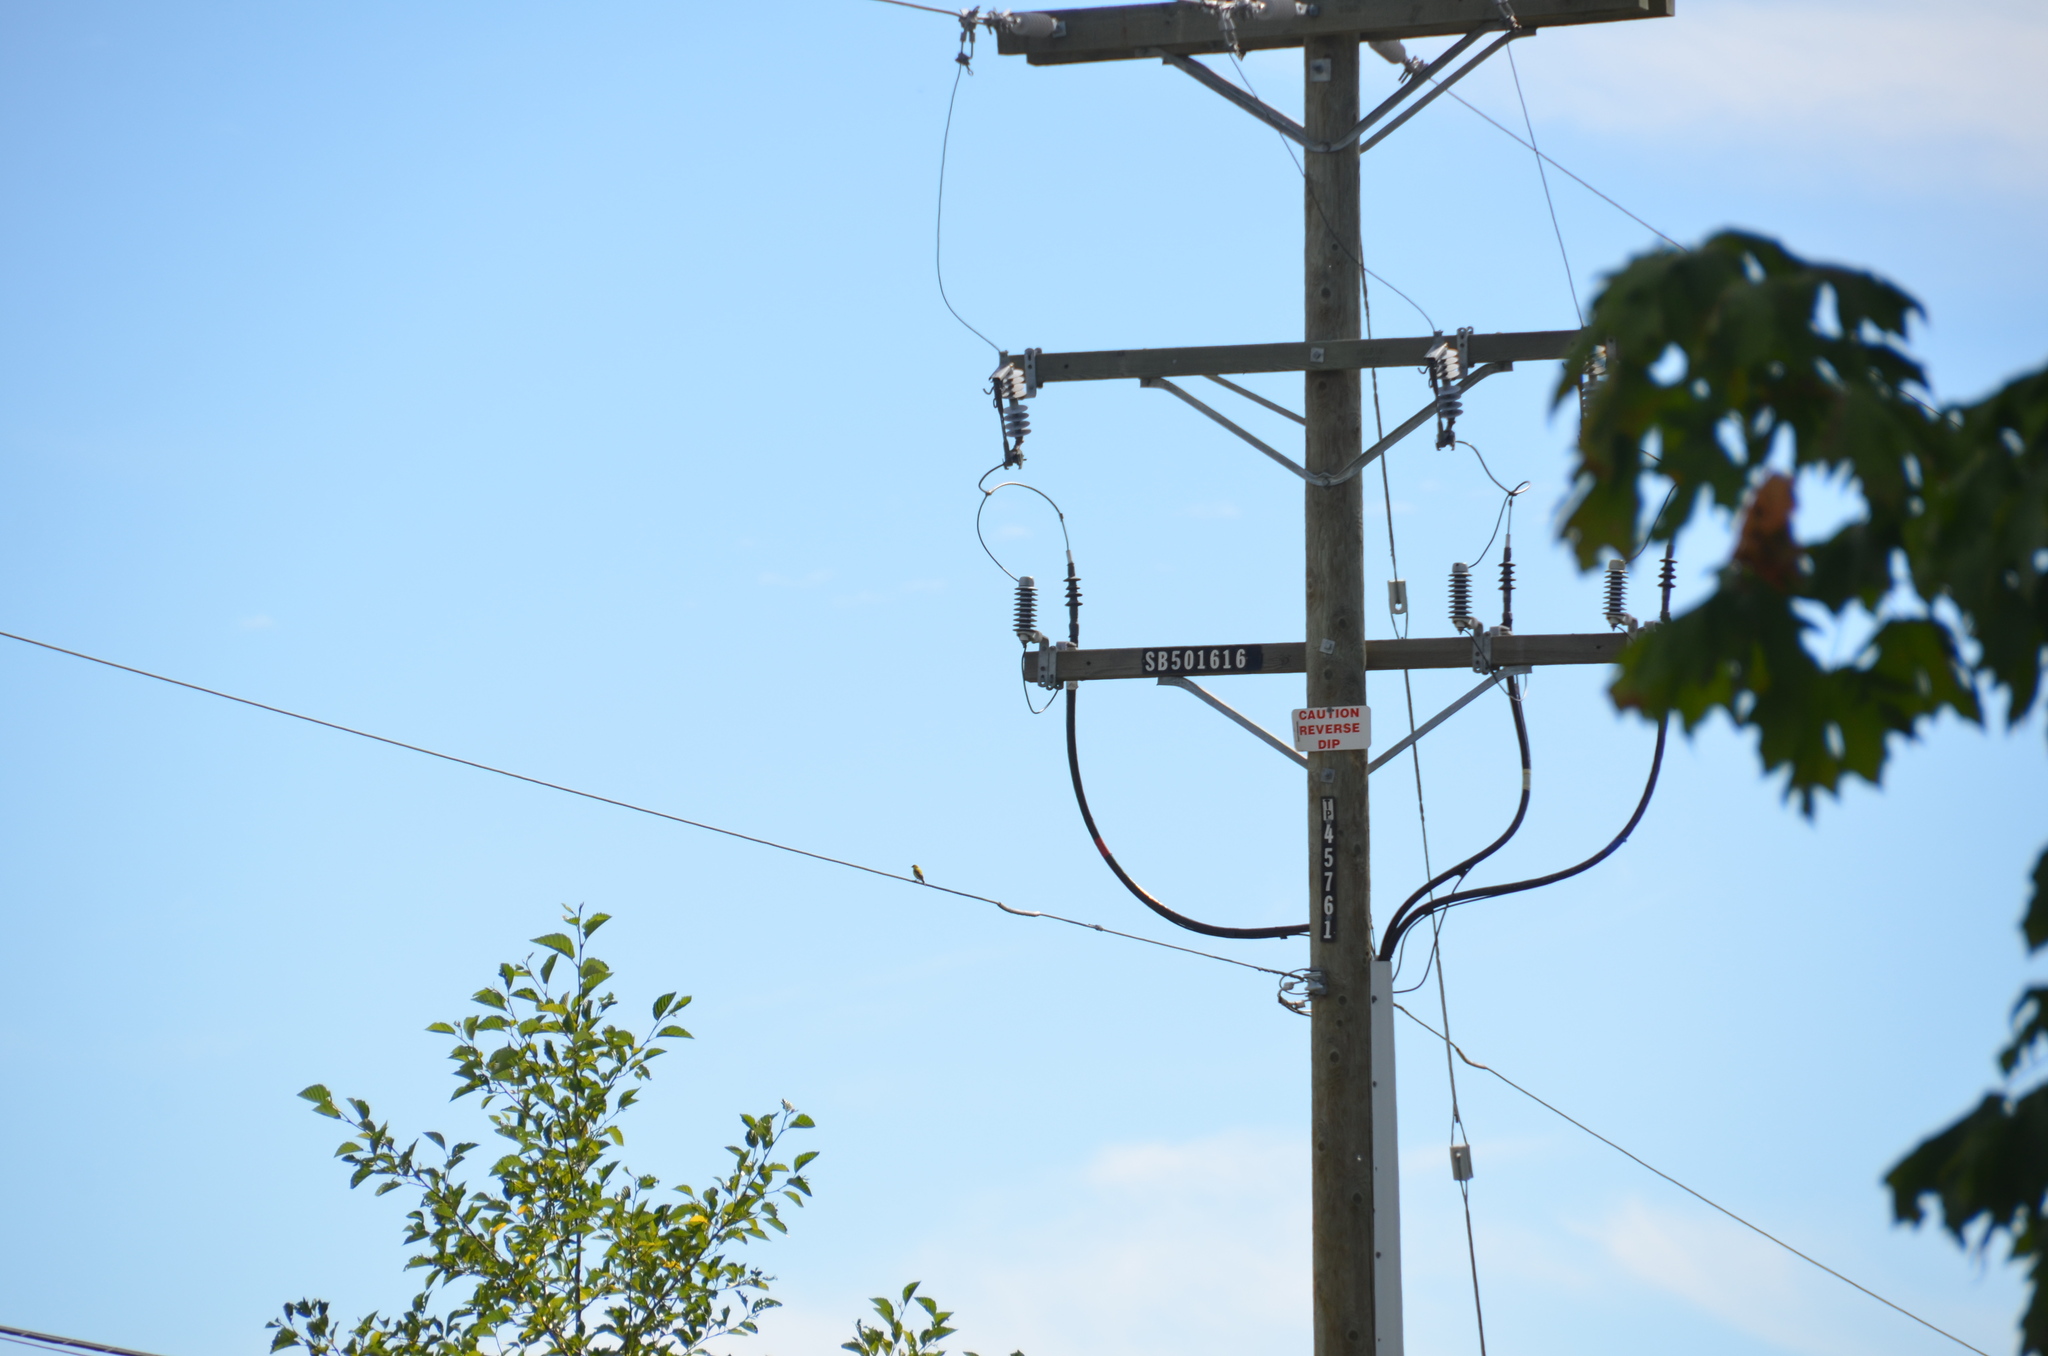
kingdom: Animalia
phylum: Chordata
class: Aves
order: Passeriformes
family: Fringillidae
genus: Spinus
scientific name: Spinus tristis
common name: American goldfinch
